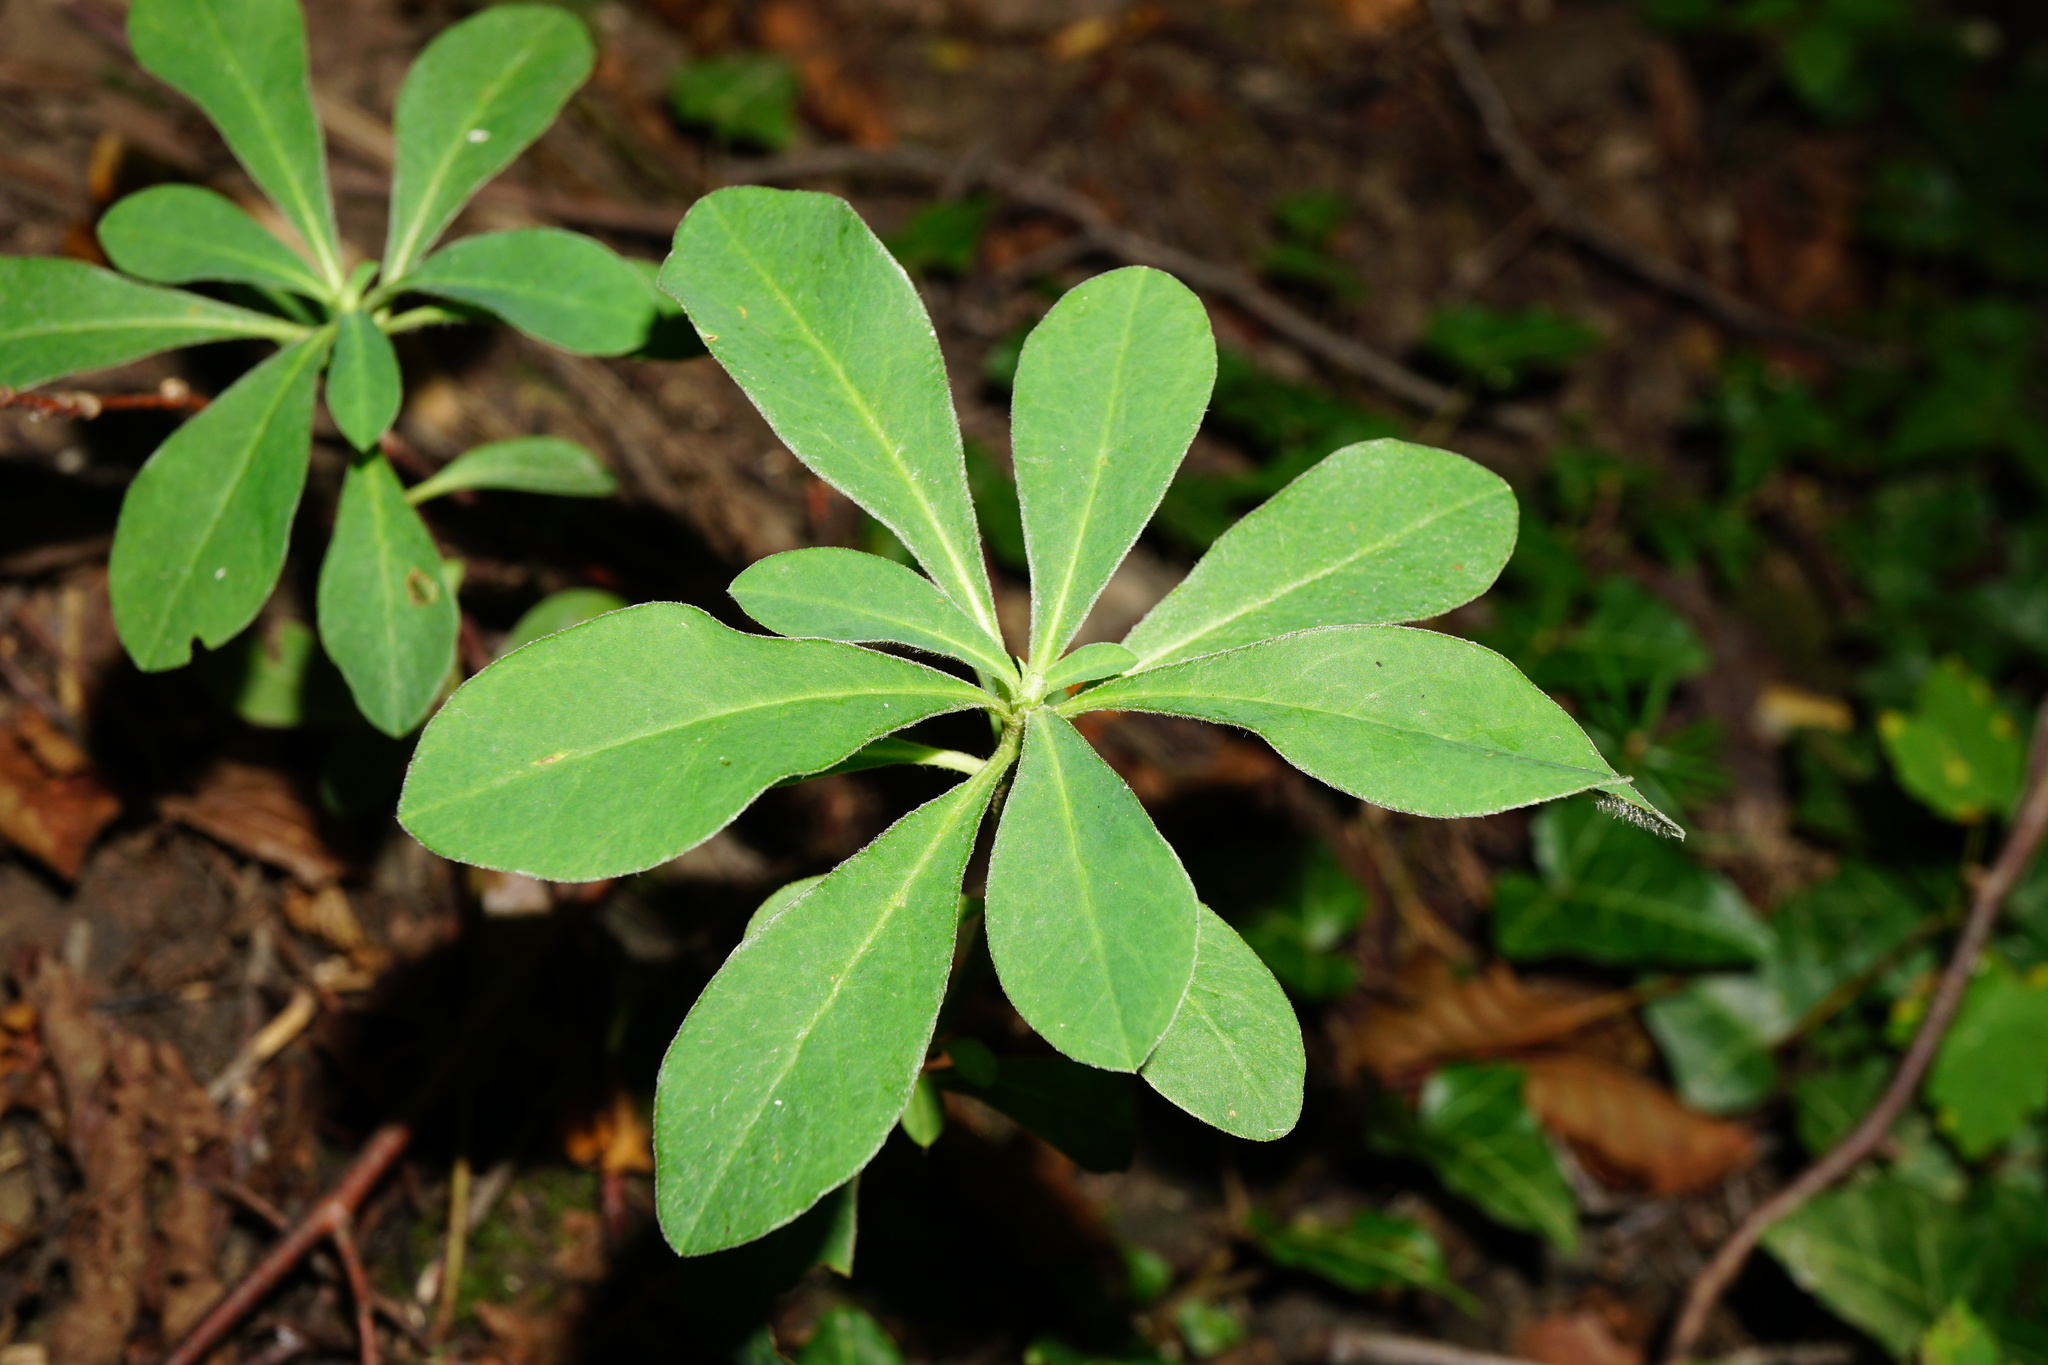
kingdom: Plantae
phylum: Tracheophyta
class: Magnoliopsida
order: Malpighiales
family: Euphorbiaceae
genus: Euphorbia
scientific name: Euphorbia amygdaloides
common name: Wood spurge
